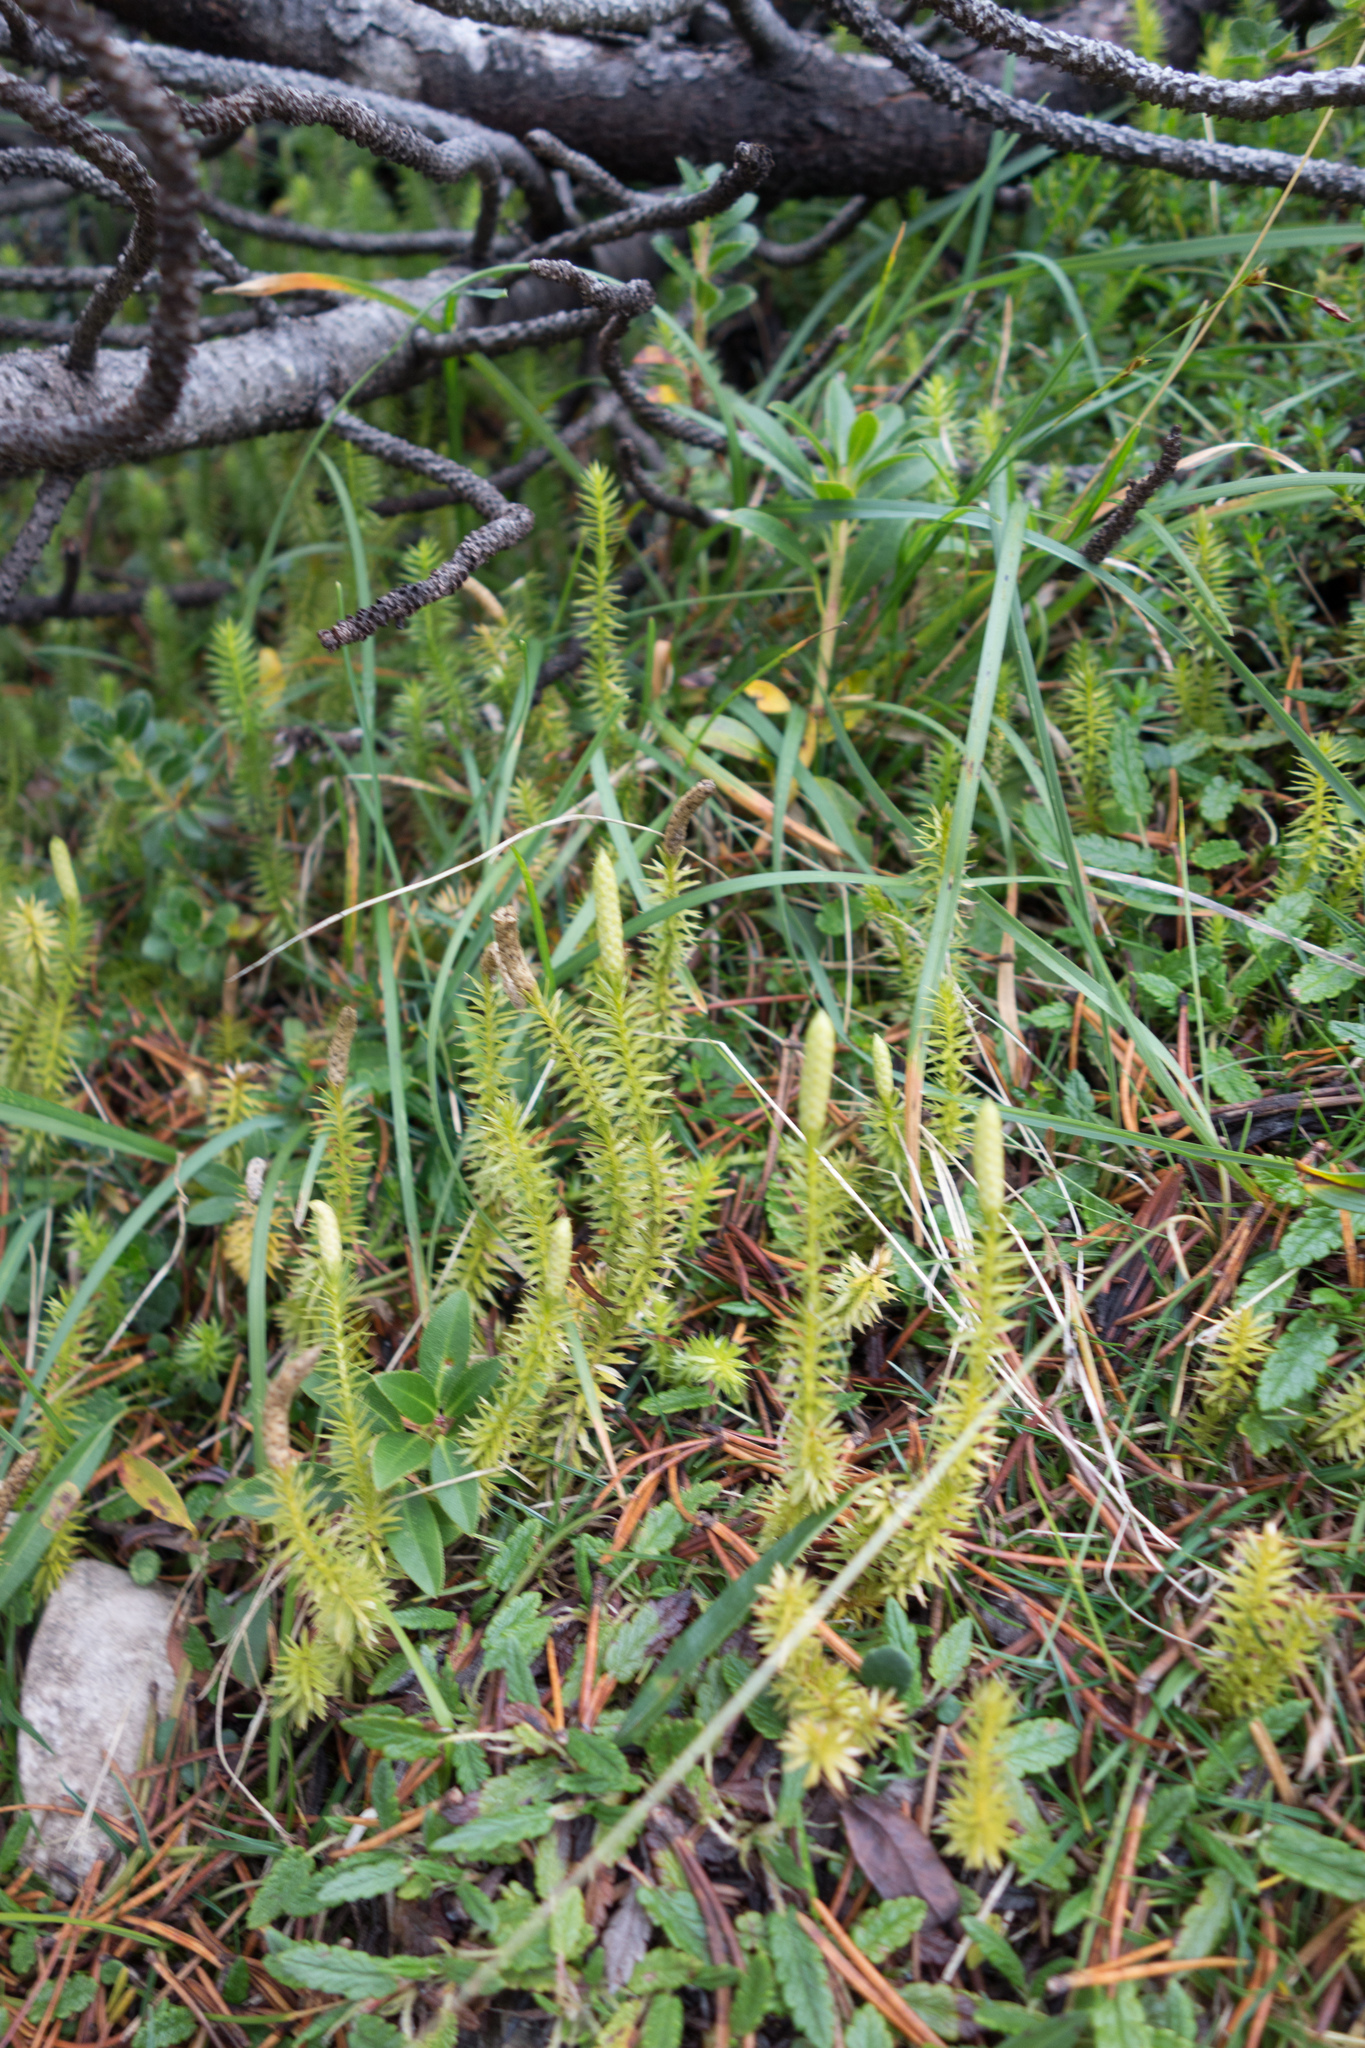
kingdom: Plantae
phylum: Tracheophyta
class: Lycopodiopsida
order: Lycopodiales
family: Lycopodiaceae
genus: Spinulum
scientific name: Spinulum annotinum
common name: Interrupted club-moss
